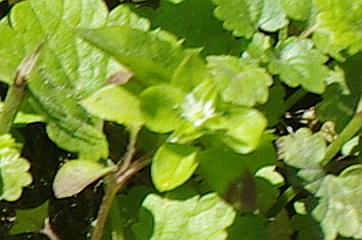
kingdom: Plantae
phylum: Tracheophyta
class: Magnoliopsida
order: Caryophyllales
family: Caryophyllaceae
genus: Stellaria
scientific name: Stellaria media
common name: Common chickweed
